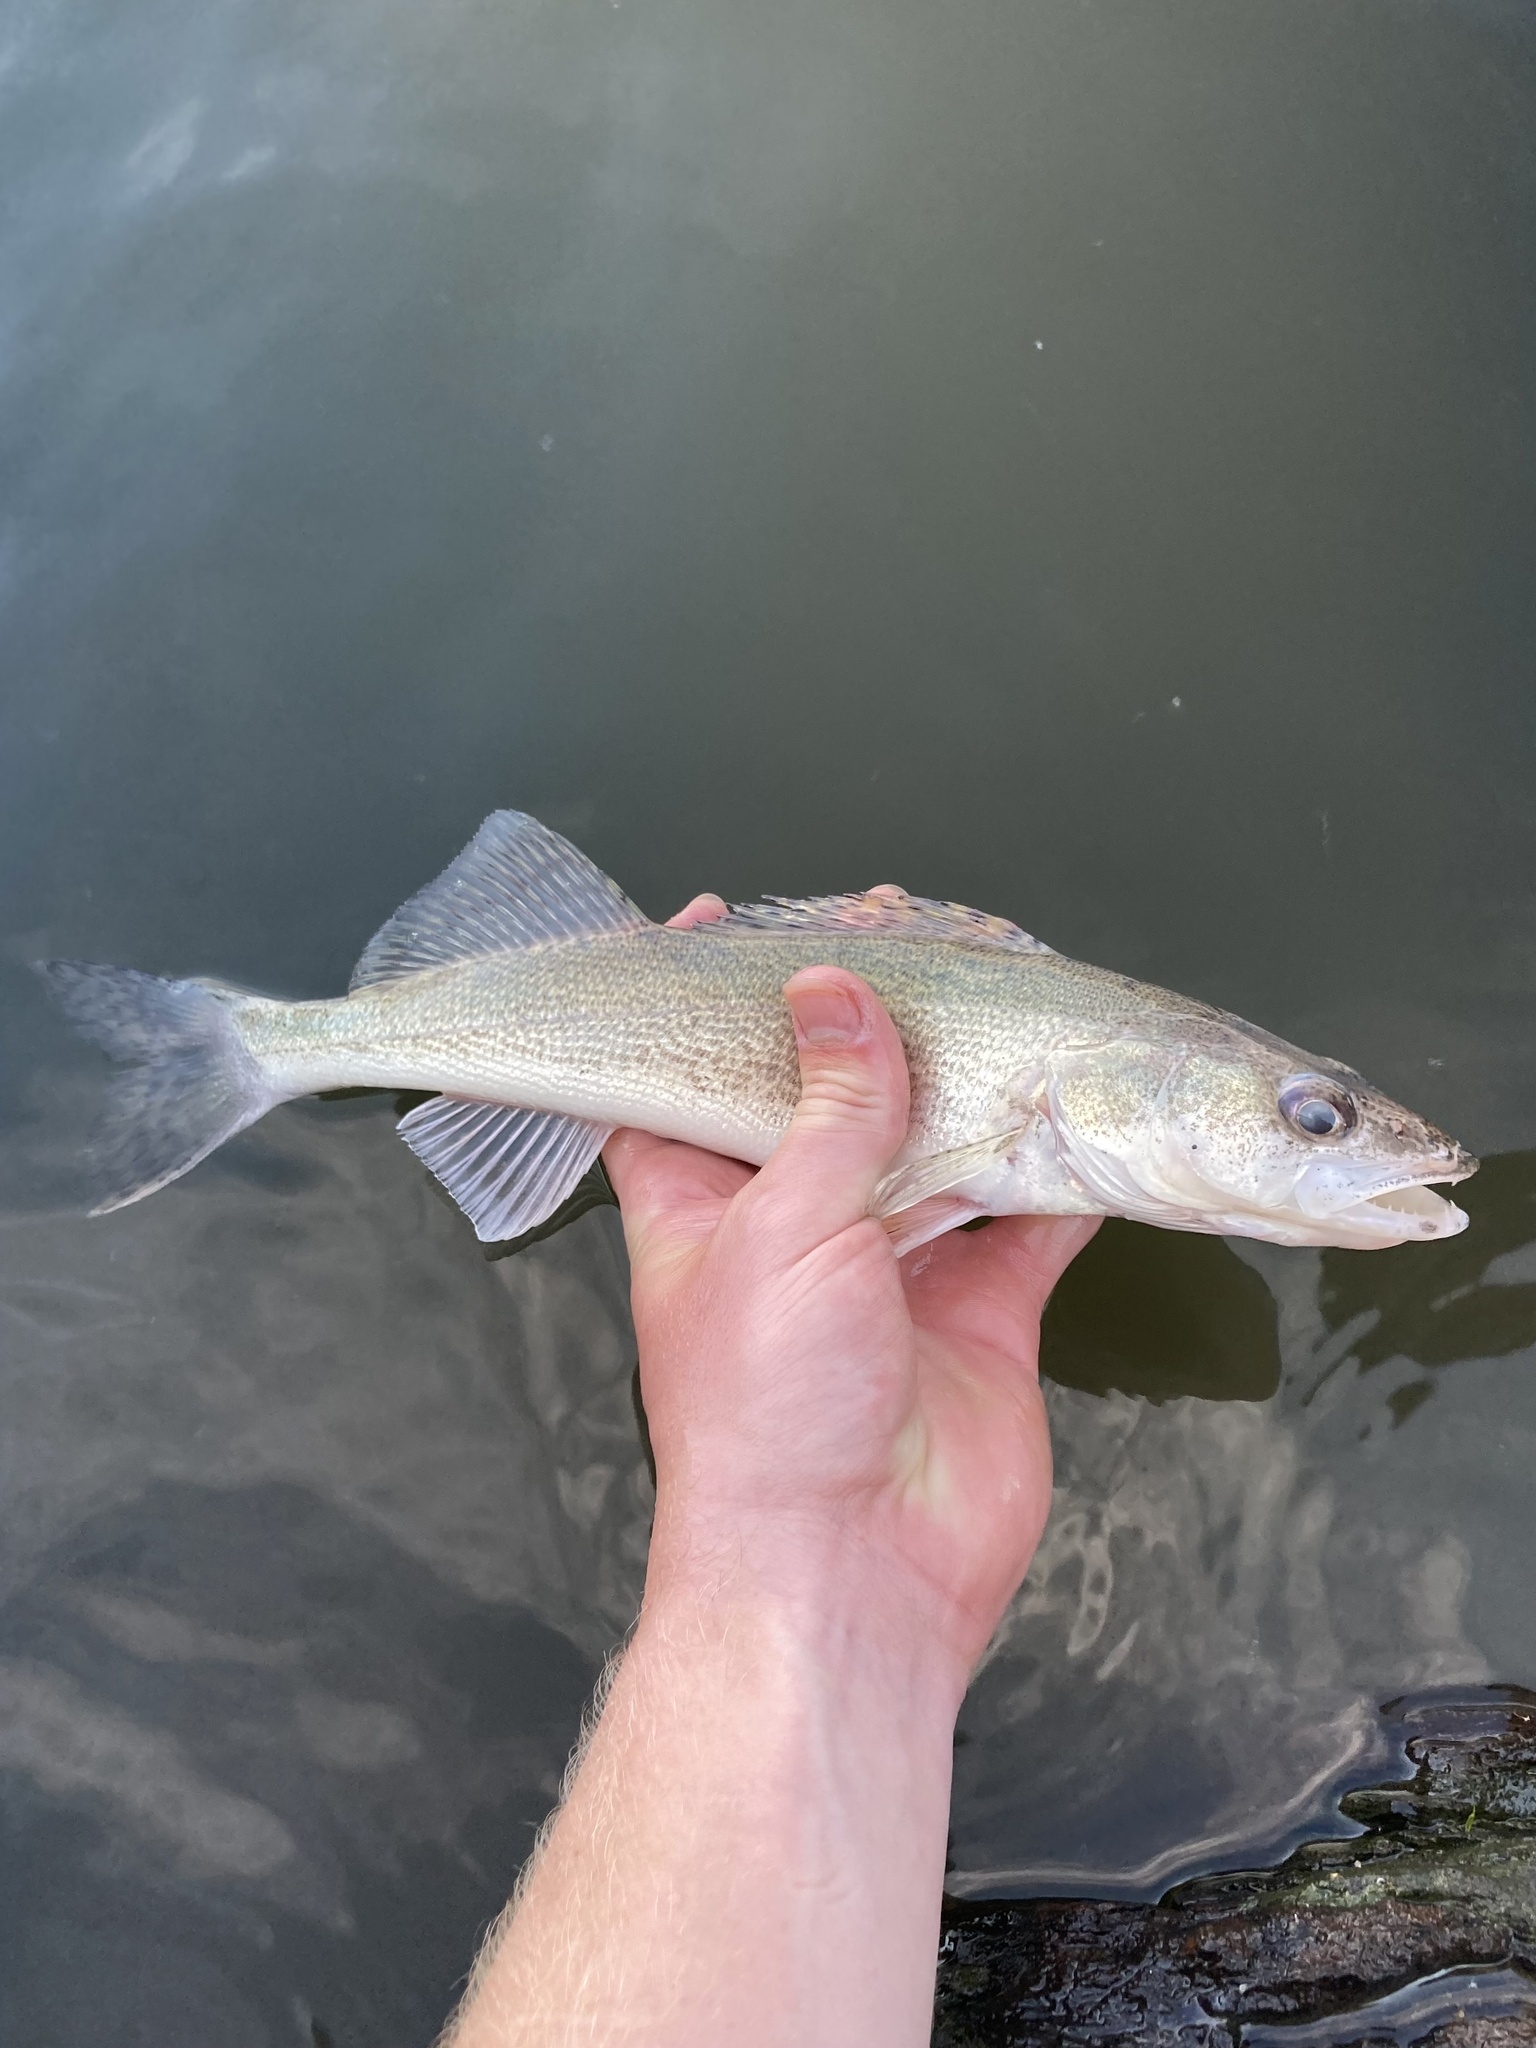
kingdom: Animalia
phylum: Chordata
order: Perciformes
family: Percidae
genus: Sander
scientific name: Sander canadensis
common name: Sauger
